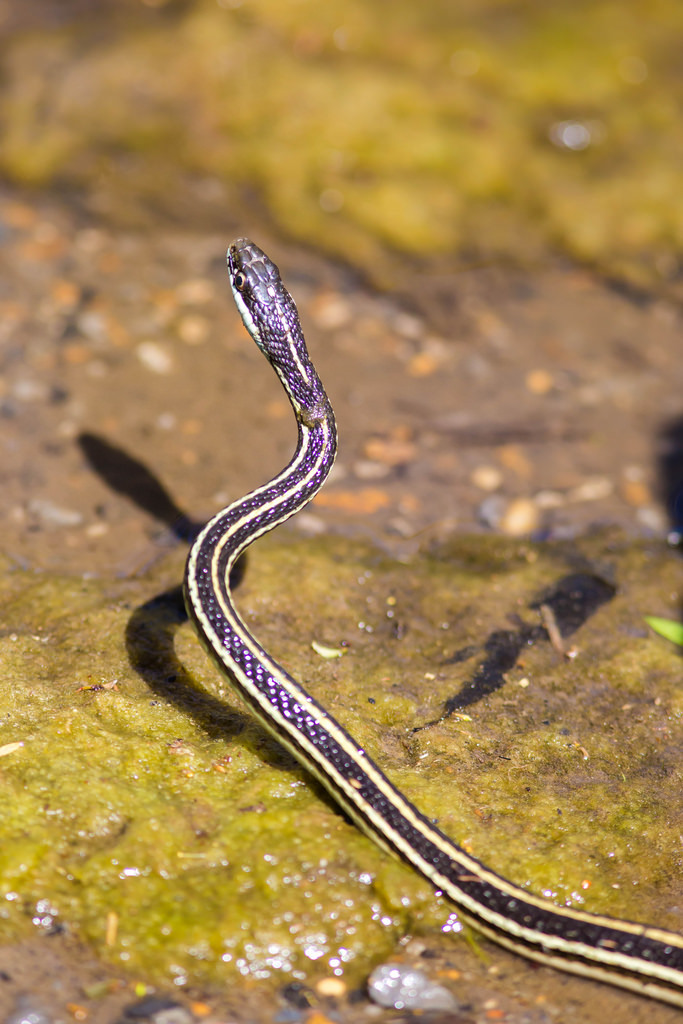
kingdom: Animalia
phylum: Chordata
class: Squamata
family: Colubridae
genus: Thamnophis
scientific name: Thamnophis proximus
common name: Western ribbon snake
